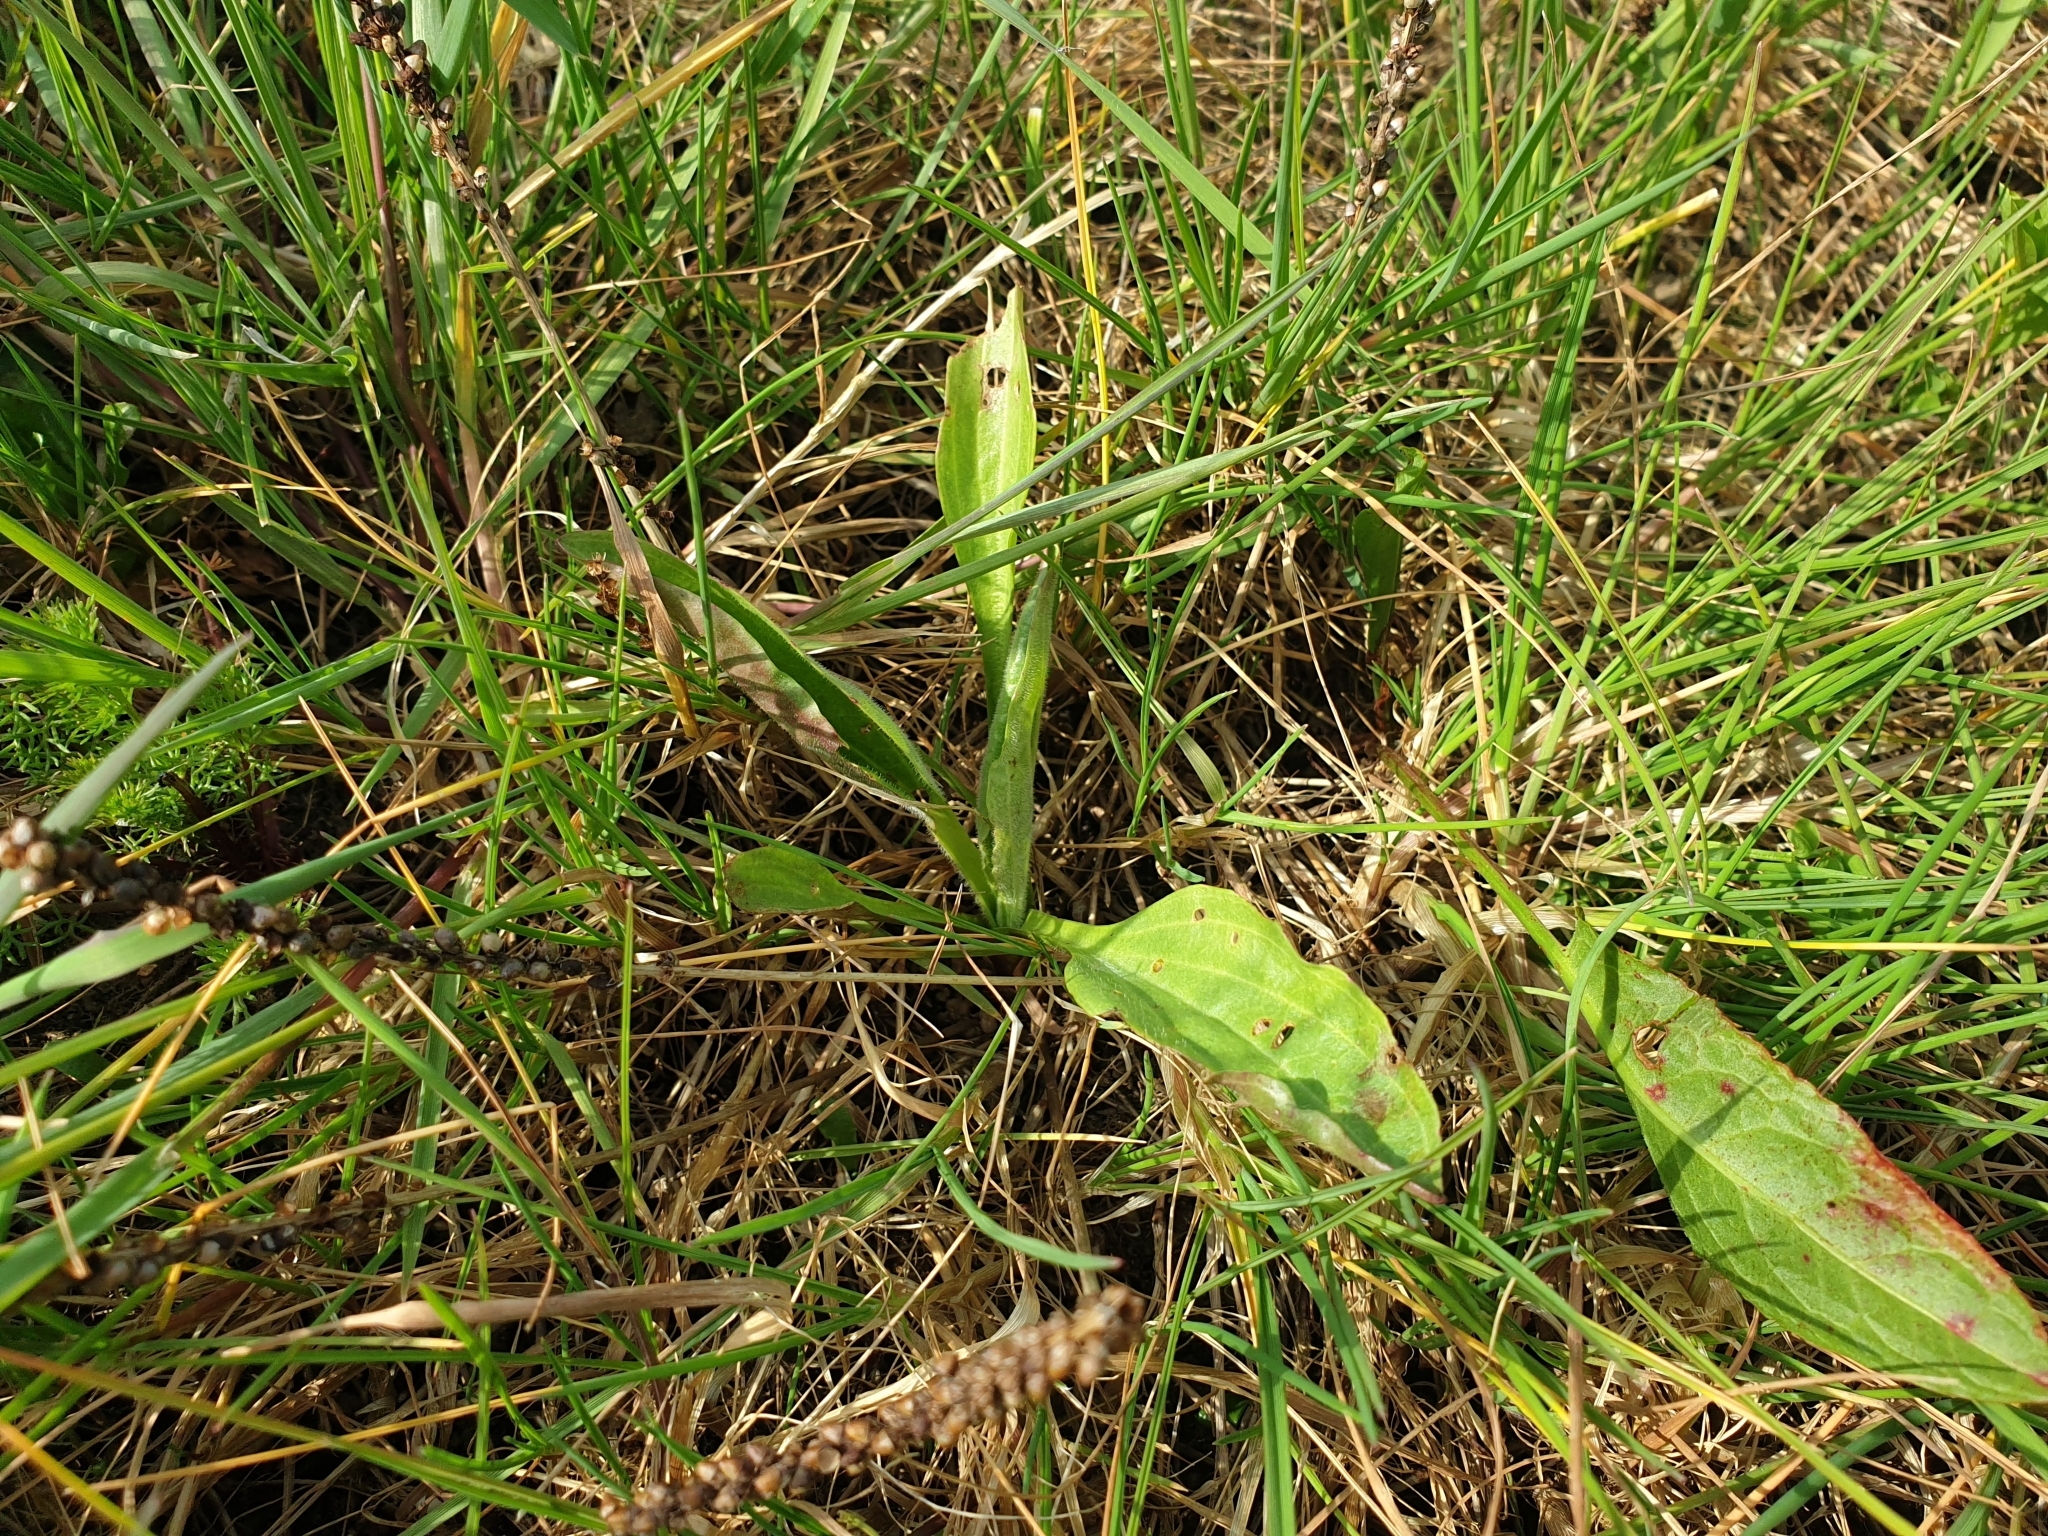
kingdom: Plantae
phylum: Tracheophyta
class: Magnoliopsida
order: Lamiales
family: Plantaginaceae
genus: Plantago
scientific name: Plantago major
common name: Common plantain
